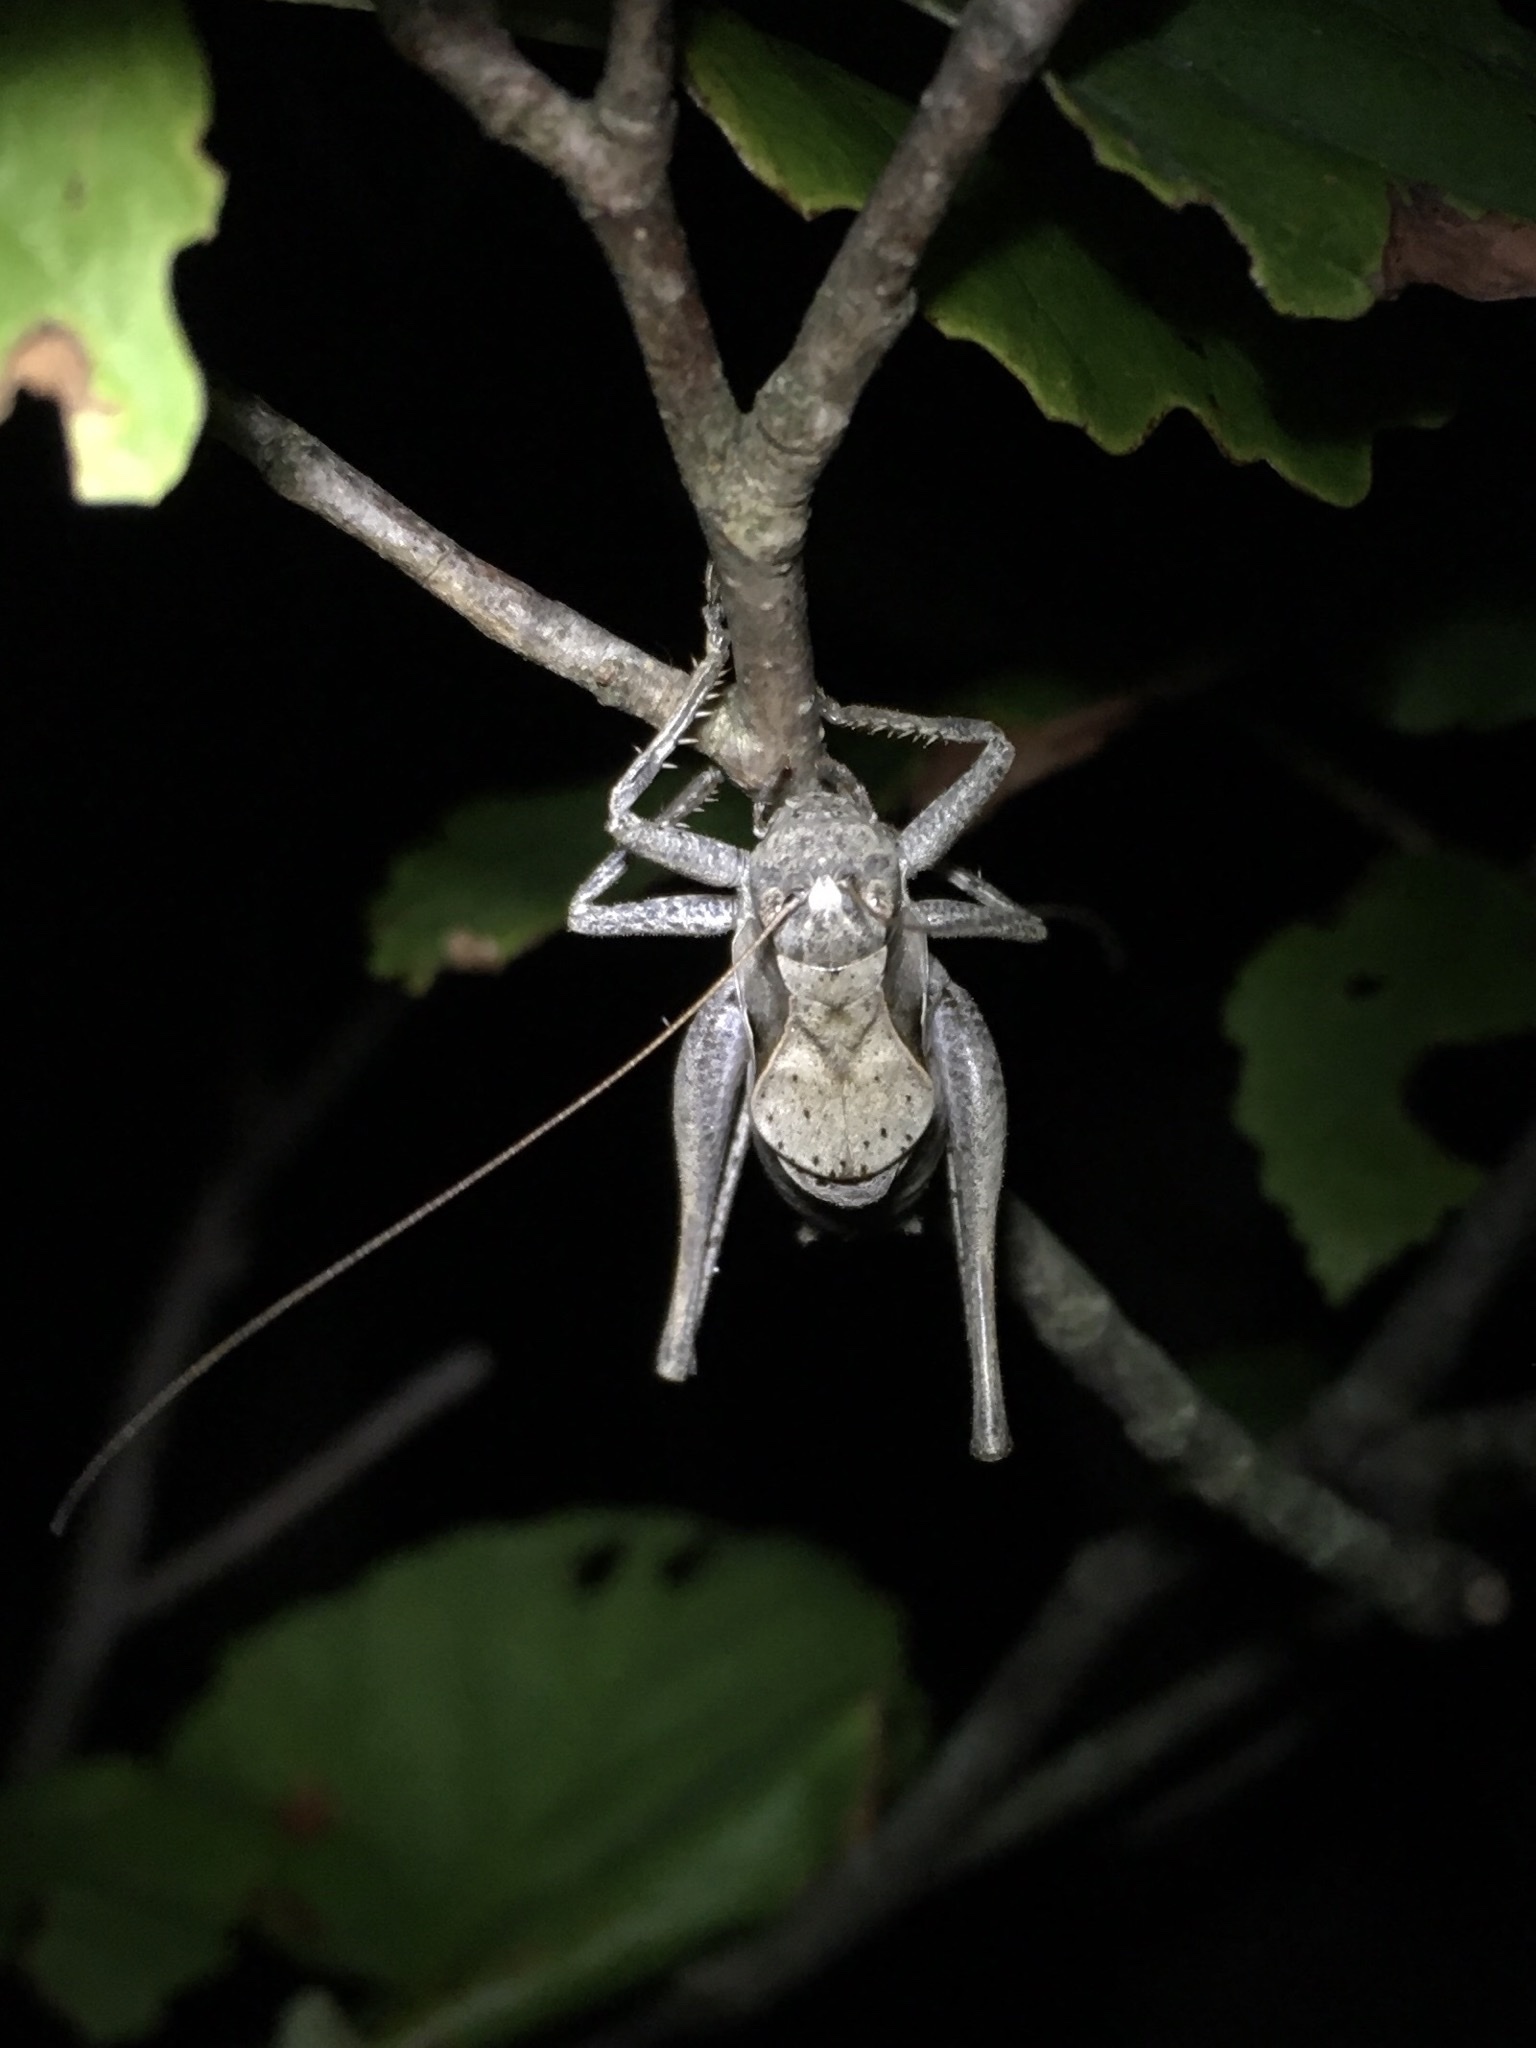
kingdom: Animalia
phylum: Arthropoda
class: Insecta
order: Orthoptera
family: Tettigoniidae
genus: Atlanticus
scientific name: Atlanticus davisi
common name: Davis's shield-bearer
